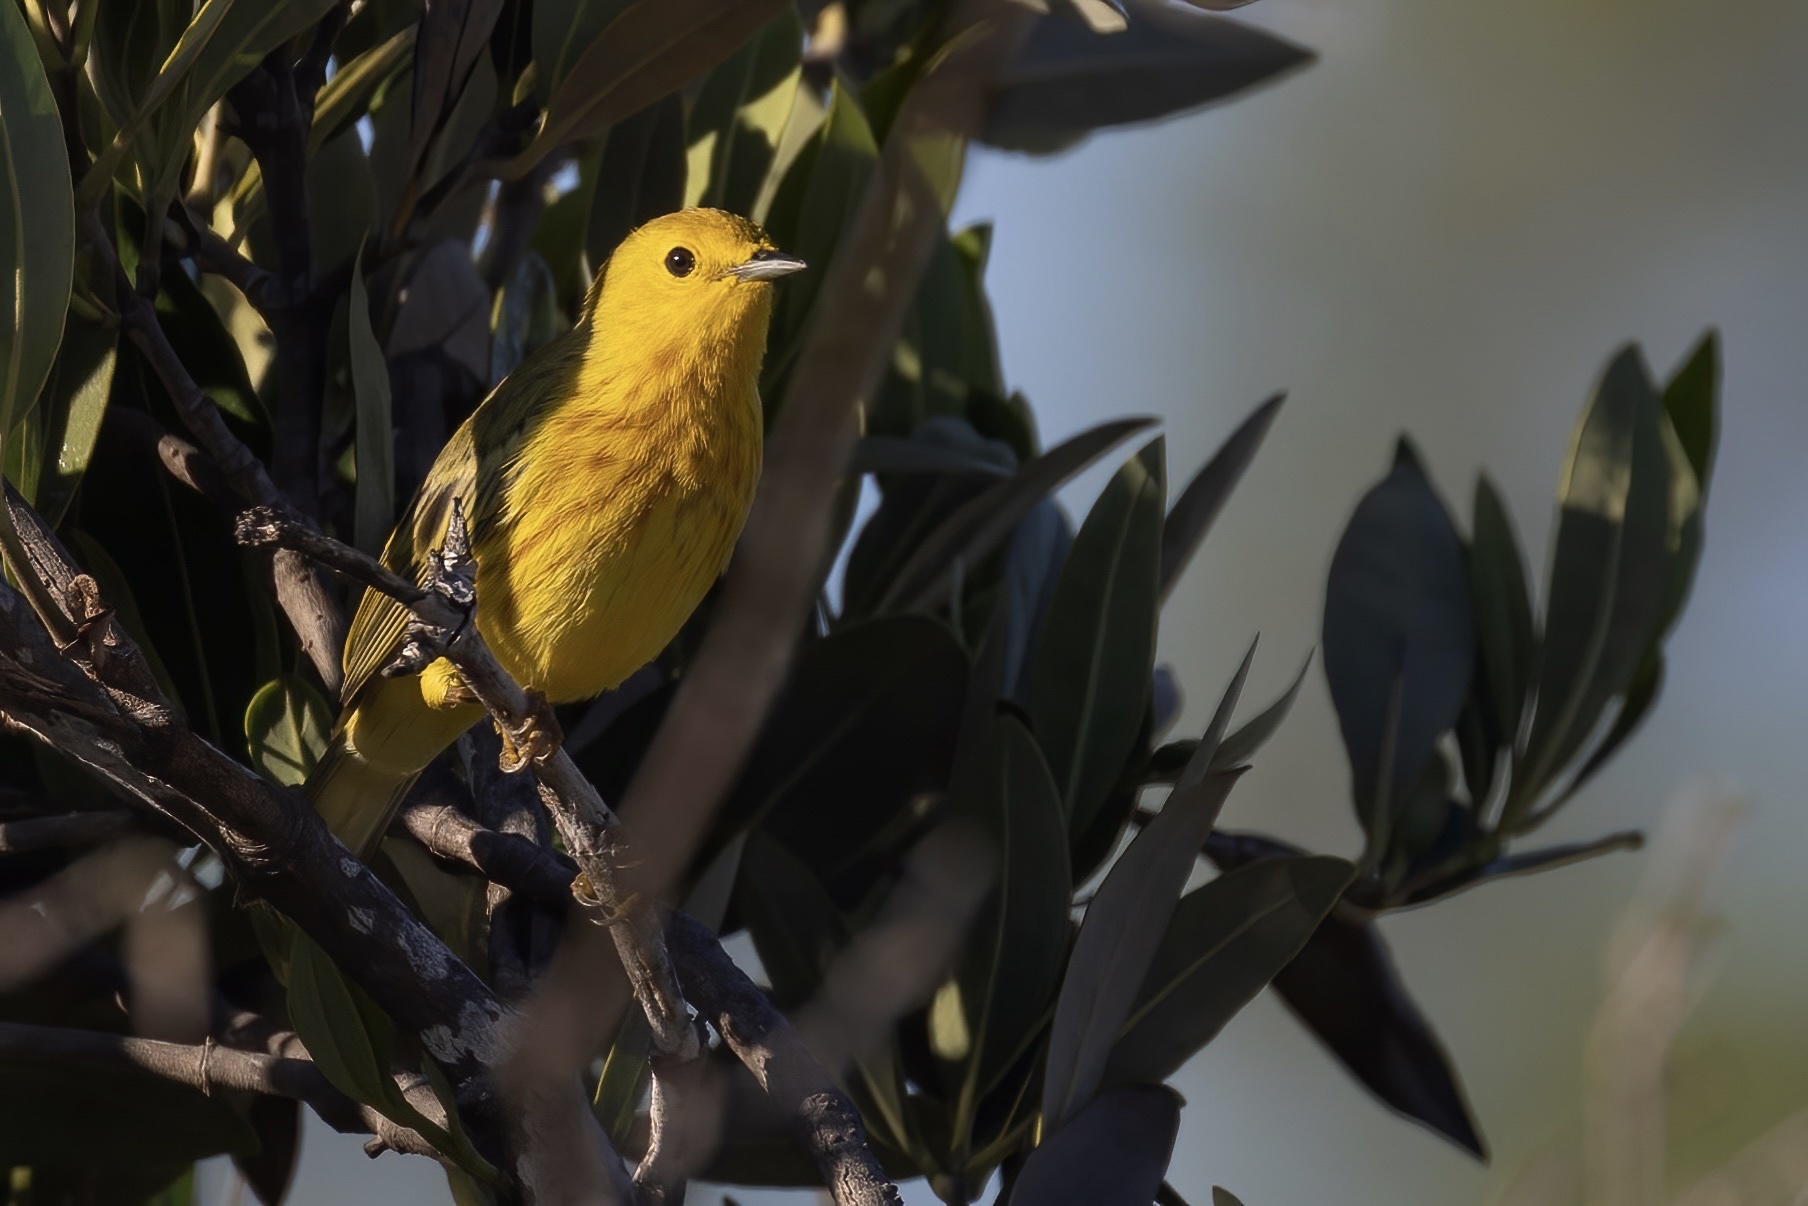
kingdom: Animalia
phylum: Chordata
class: Aves
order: Passeriformes
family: Parulidae
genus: Setophaga
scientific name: Setophaga petechia
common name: Yellow warbler
